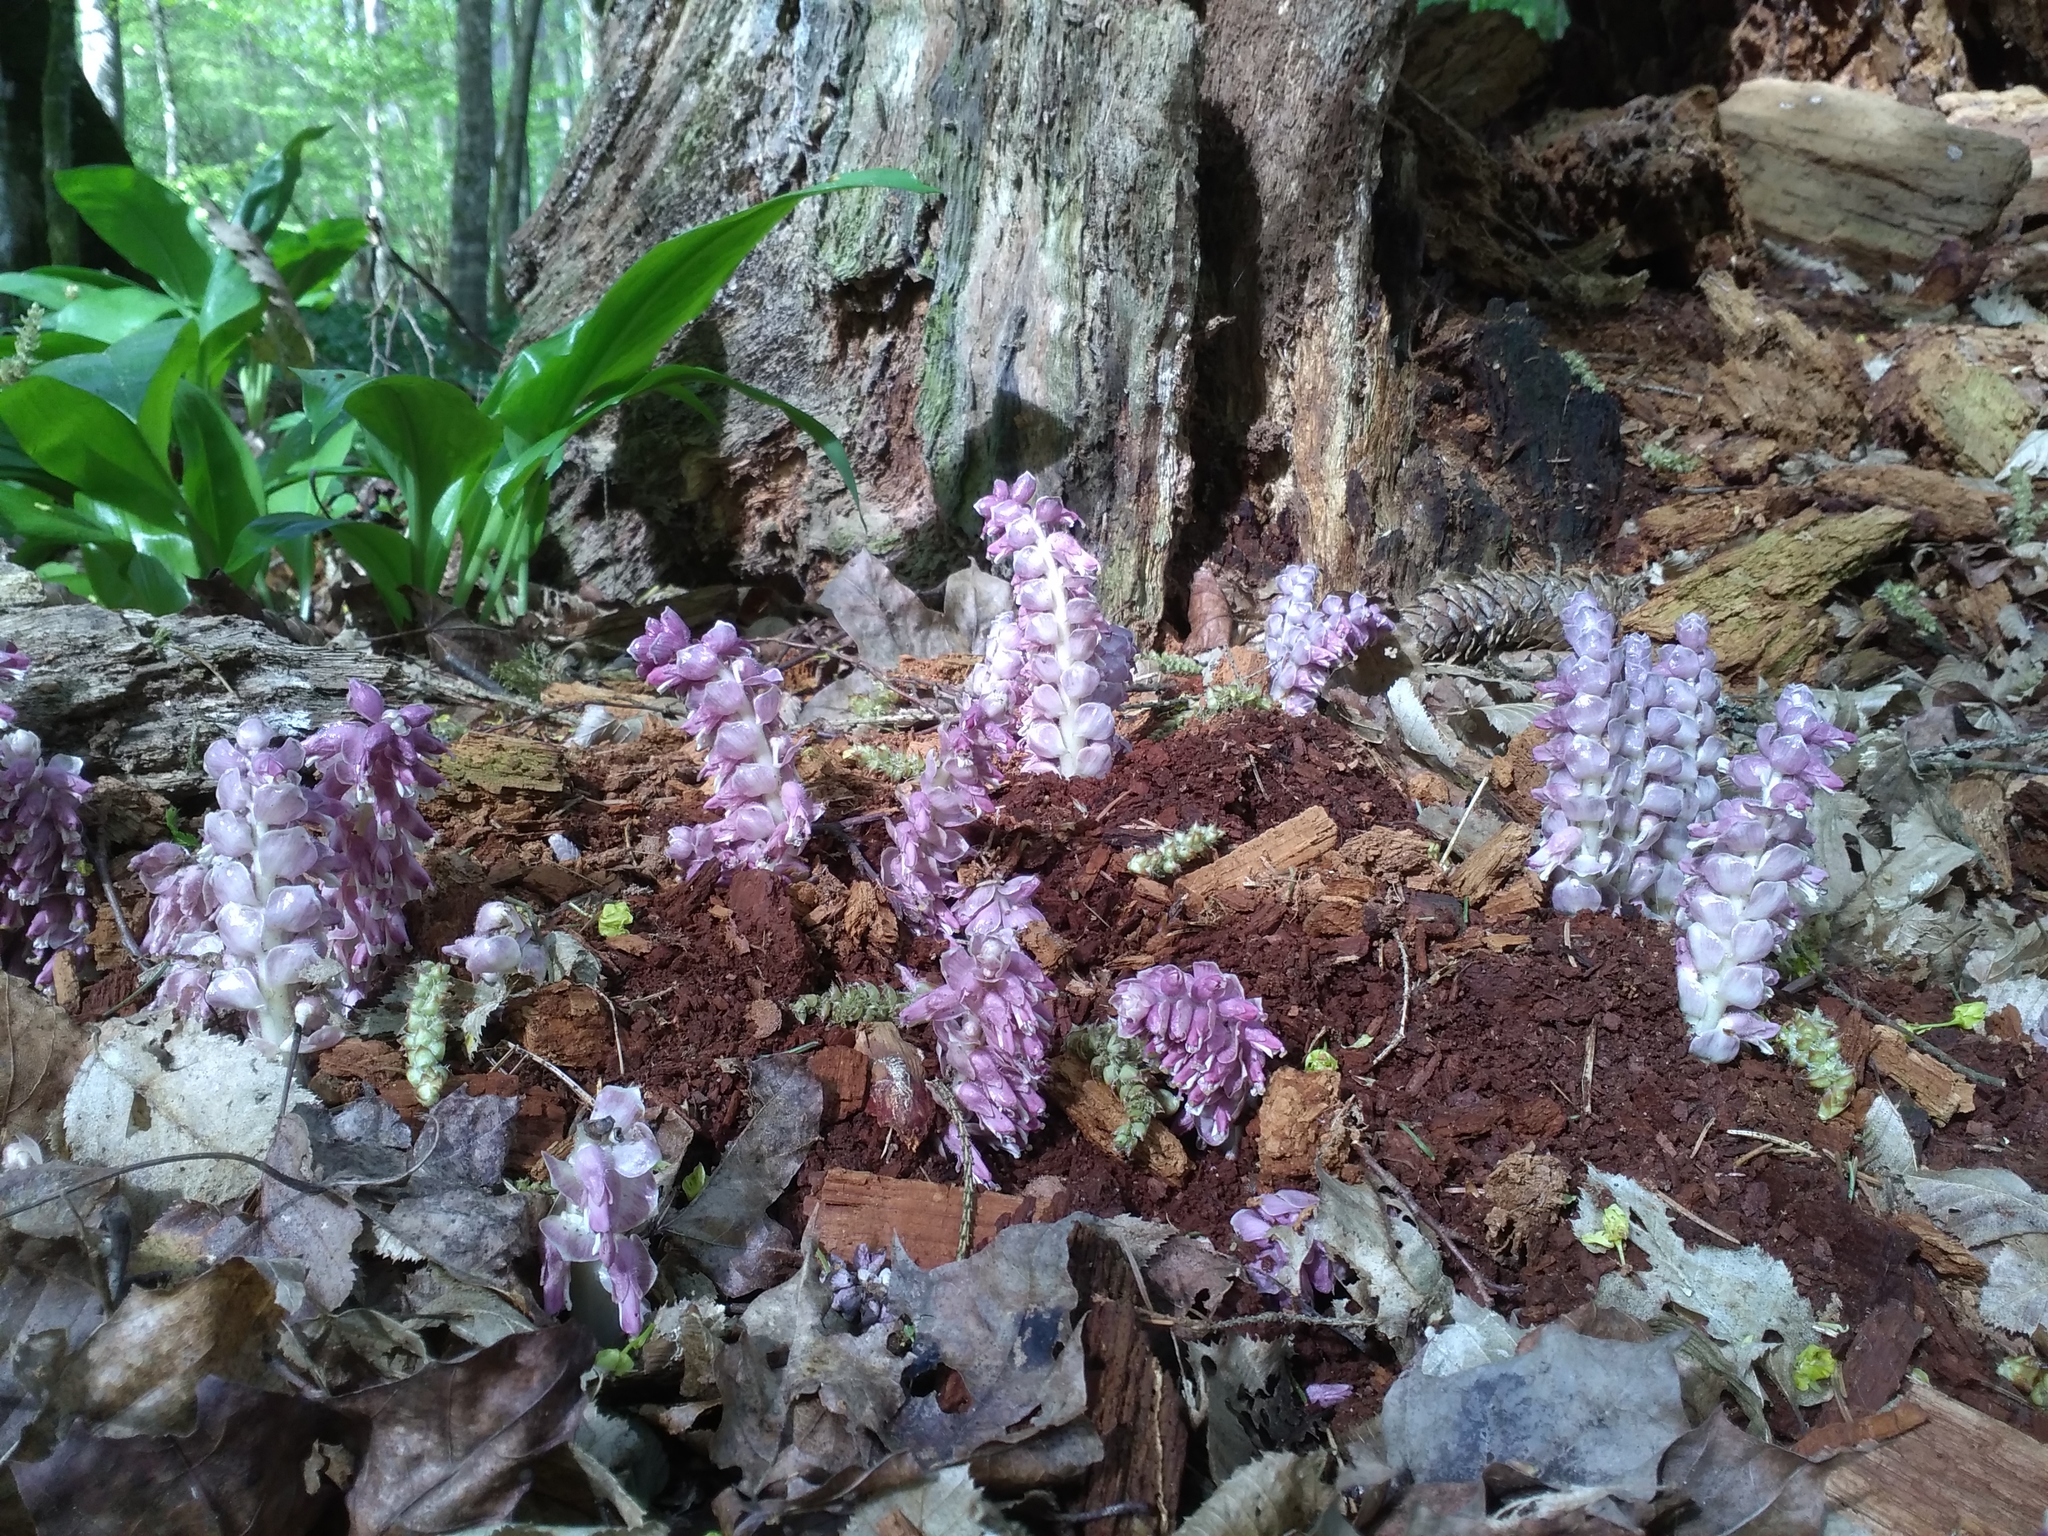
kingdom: Plantae
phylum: Tracheophyta
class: Magnoliopsida
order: Lamiales
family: Orobanchaceae
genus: Lathraea
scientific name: Lathraea squamaria
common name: Toothwort
